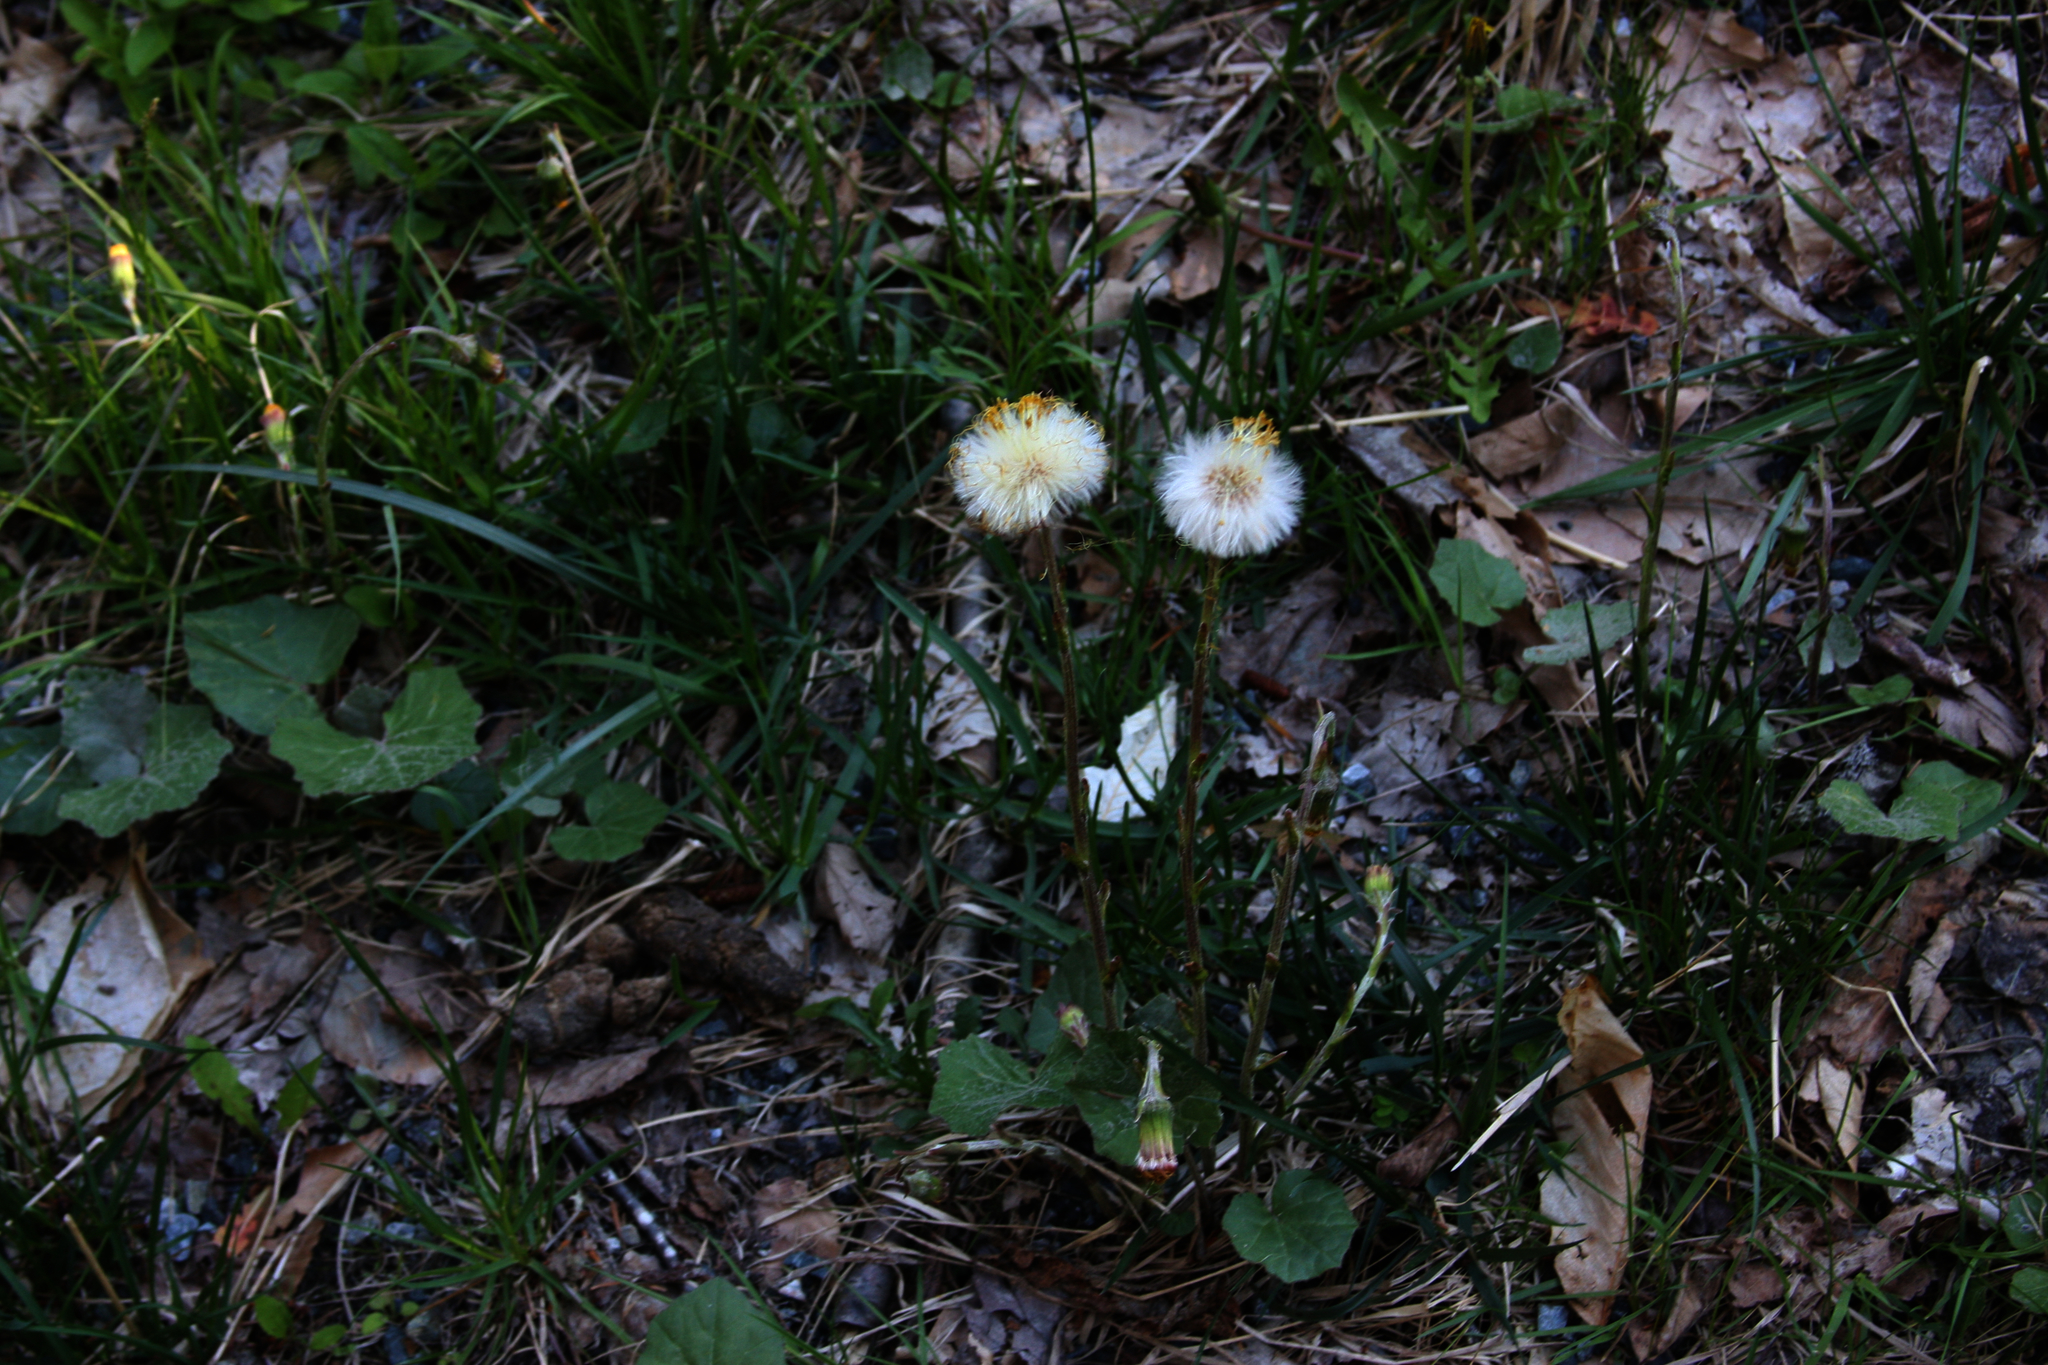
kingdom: Plantae
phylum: Tracheophyta
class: Magnoliopsida
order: Asterales
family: Asteraceae
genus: Tussilago
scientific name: Tussilago farfara
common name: Coltsfoot
